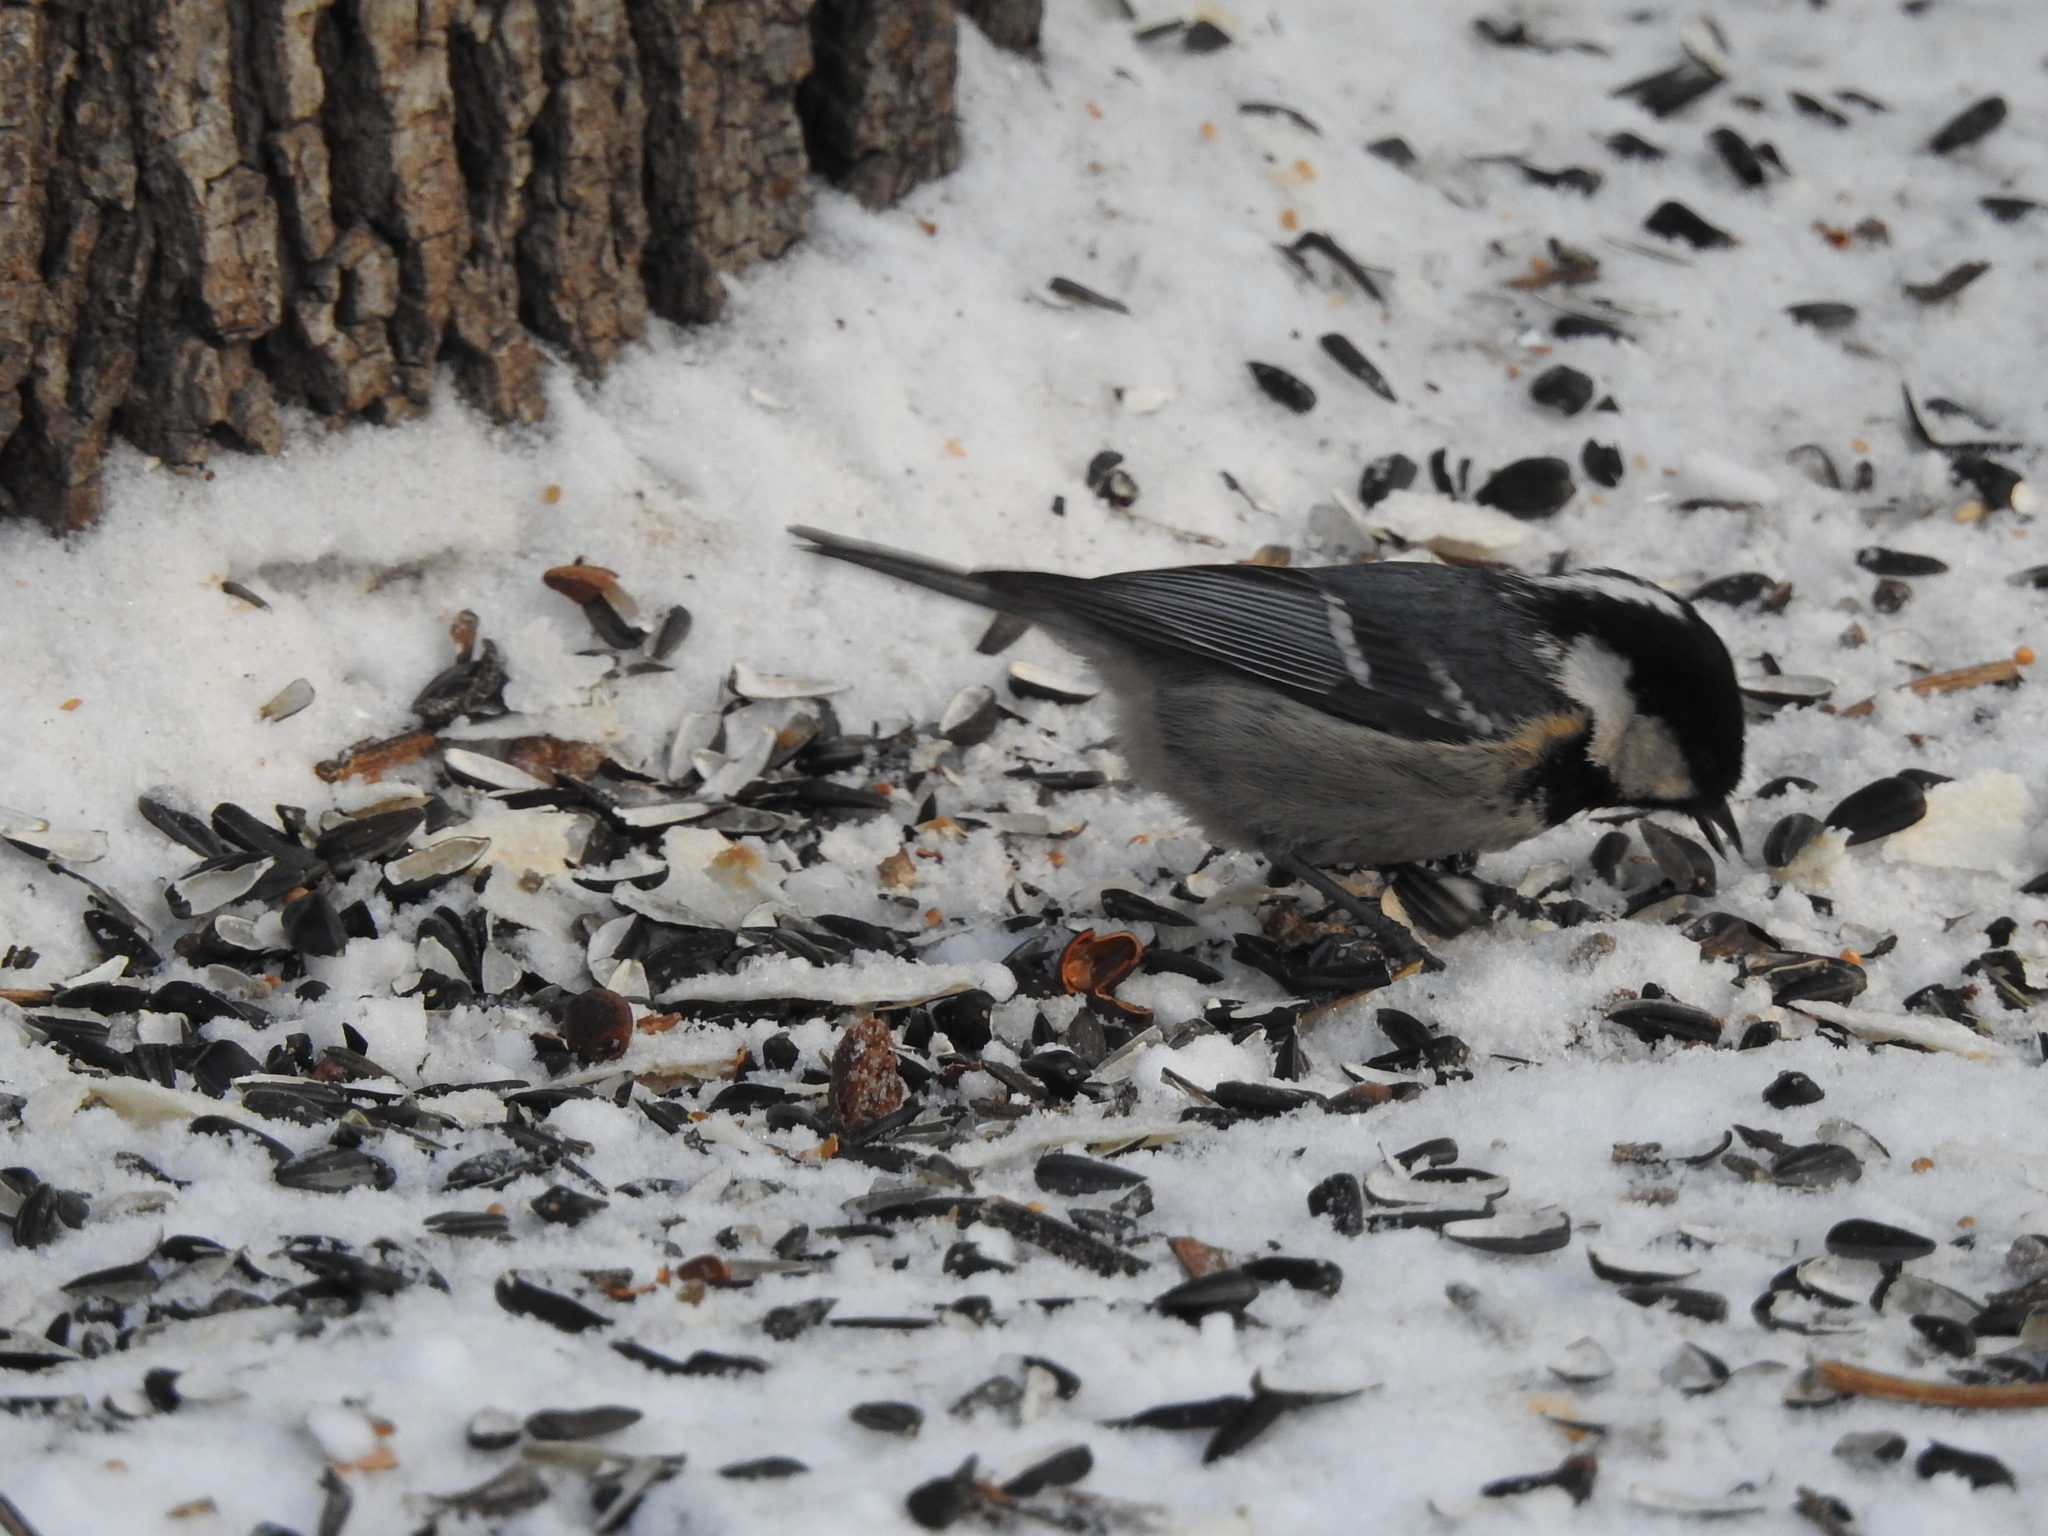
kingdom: Animalia
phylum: Chordata
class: Aves
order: Passeriformes
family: Paridae
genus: Periparus
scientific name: Periparus ater
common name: Coal tit
